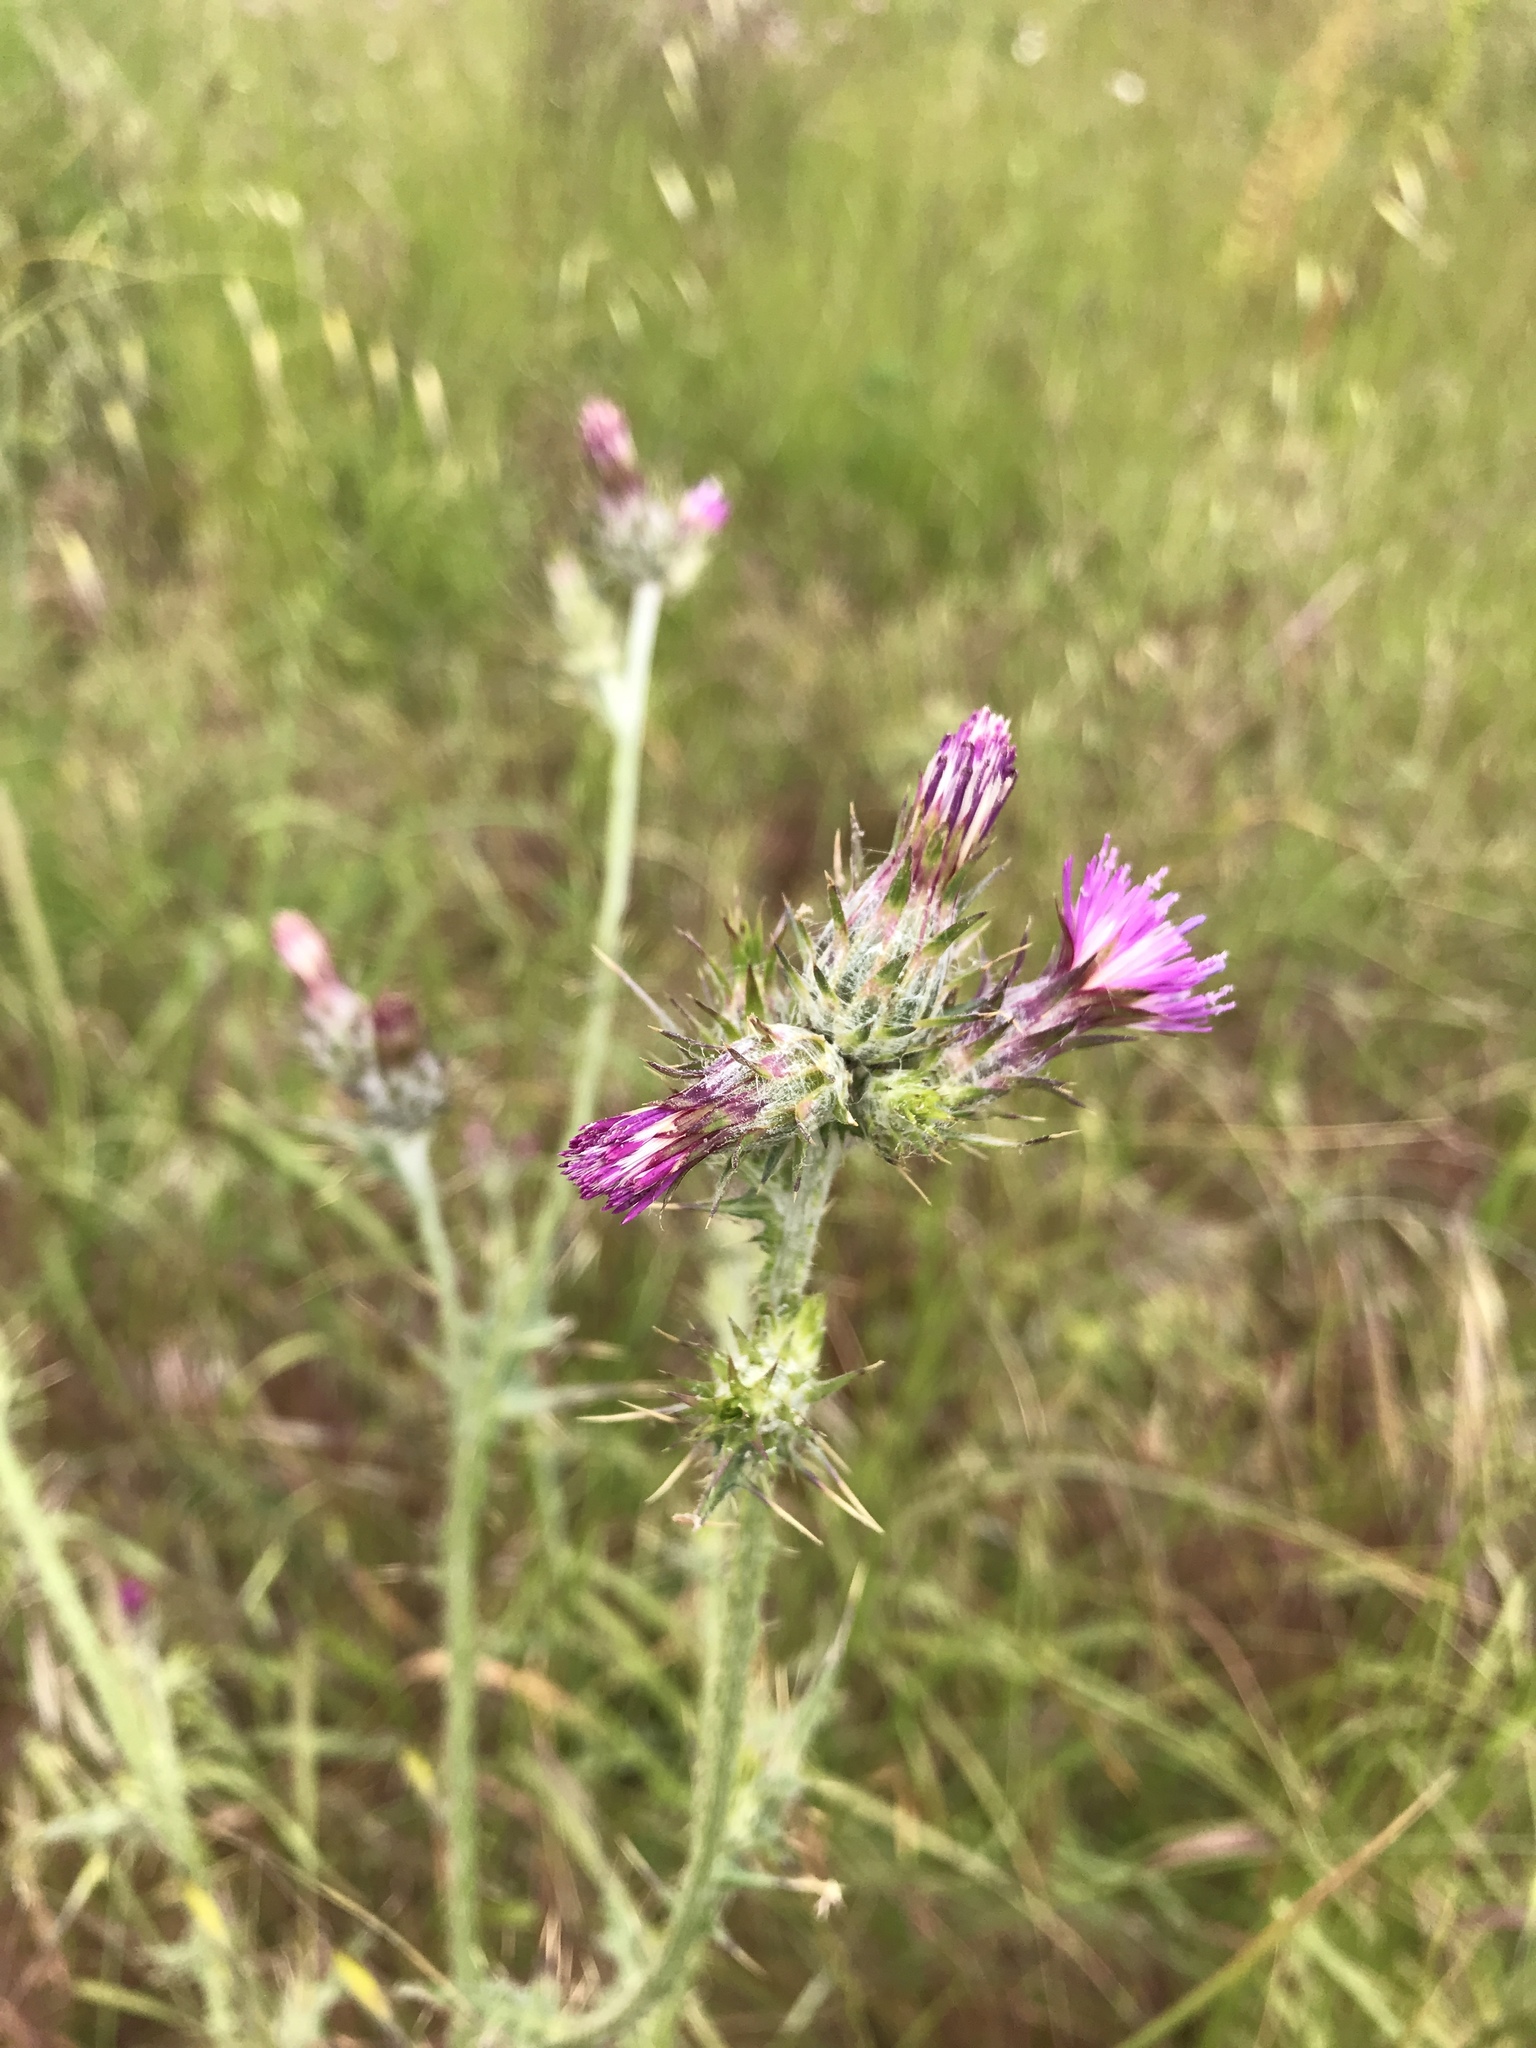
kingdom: Plantae
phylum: Tracheophyta
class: Magnoliopsida
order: Asterales
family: Asteraceae
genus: Carduus
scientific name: Carduus pycnocephalus
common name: Plymouth thistle
